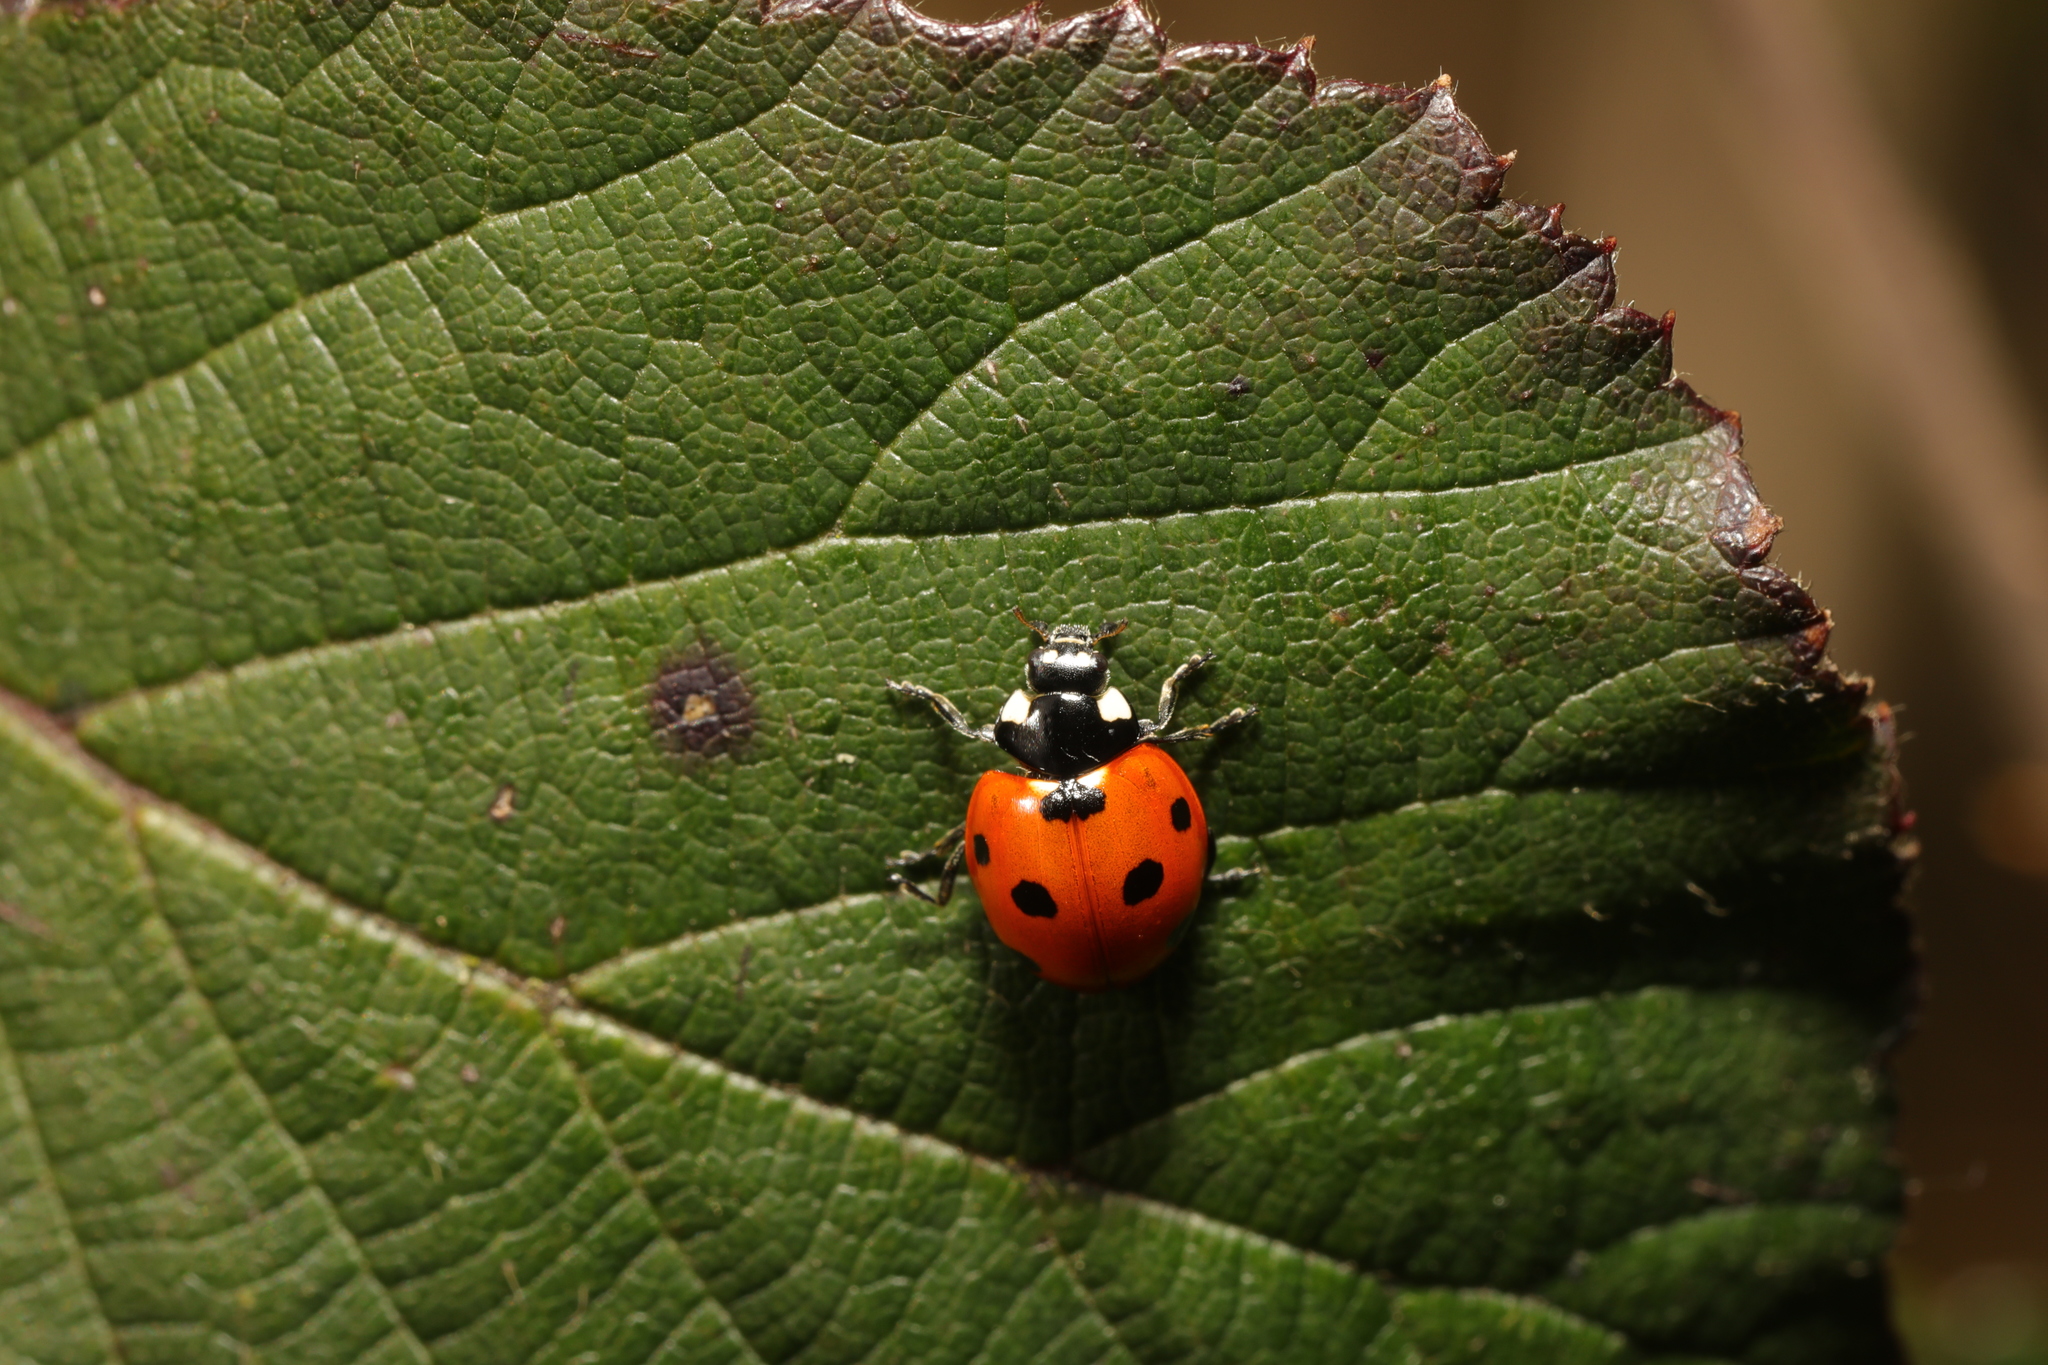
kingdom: Animalia
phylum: Arthropoda
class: Insecta
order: Coleoptera
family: Coccinellidae
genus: Coccinella
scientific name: Coccinella septempunctata
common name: Sevenspotted lady beetle
